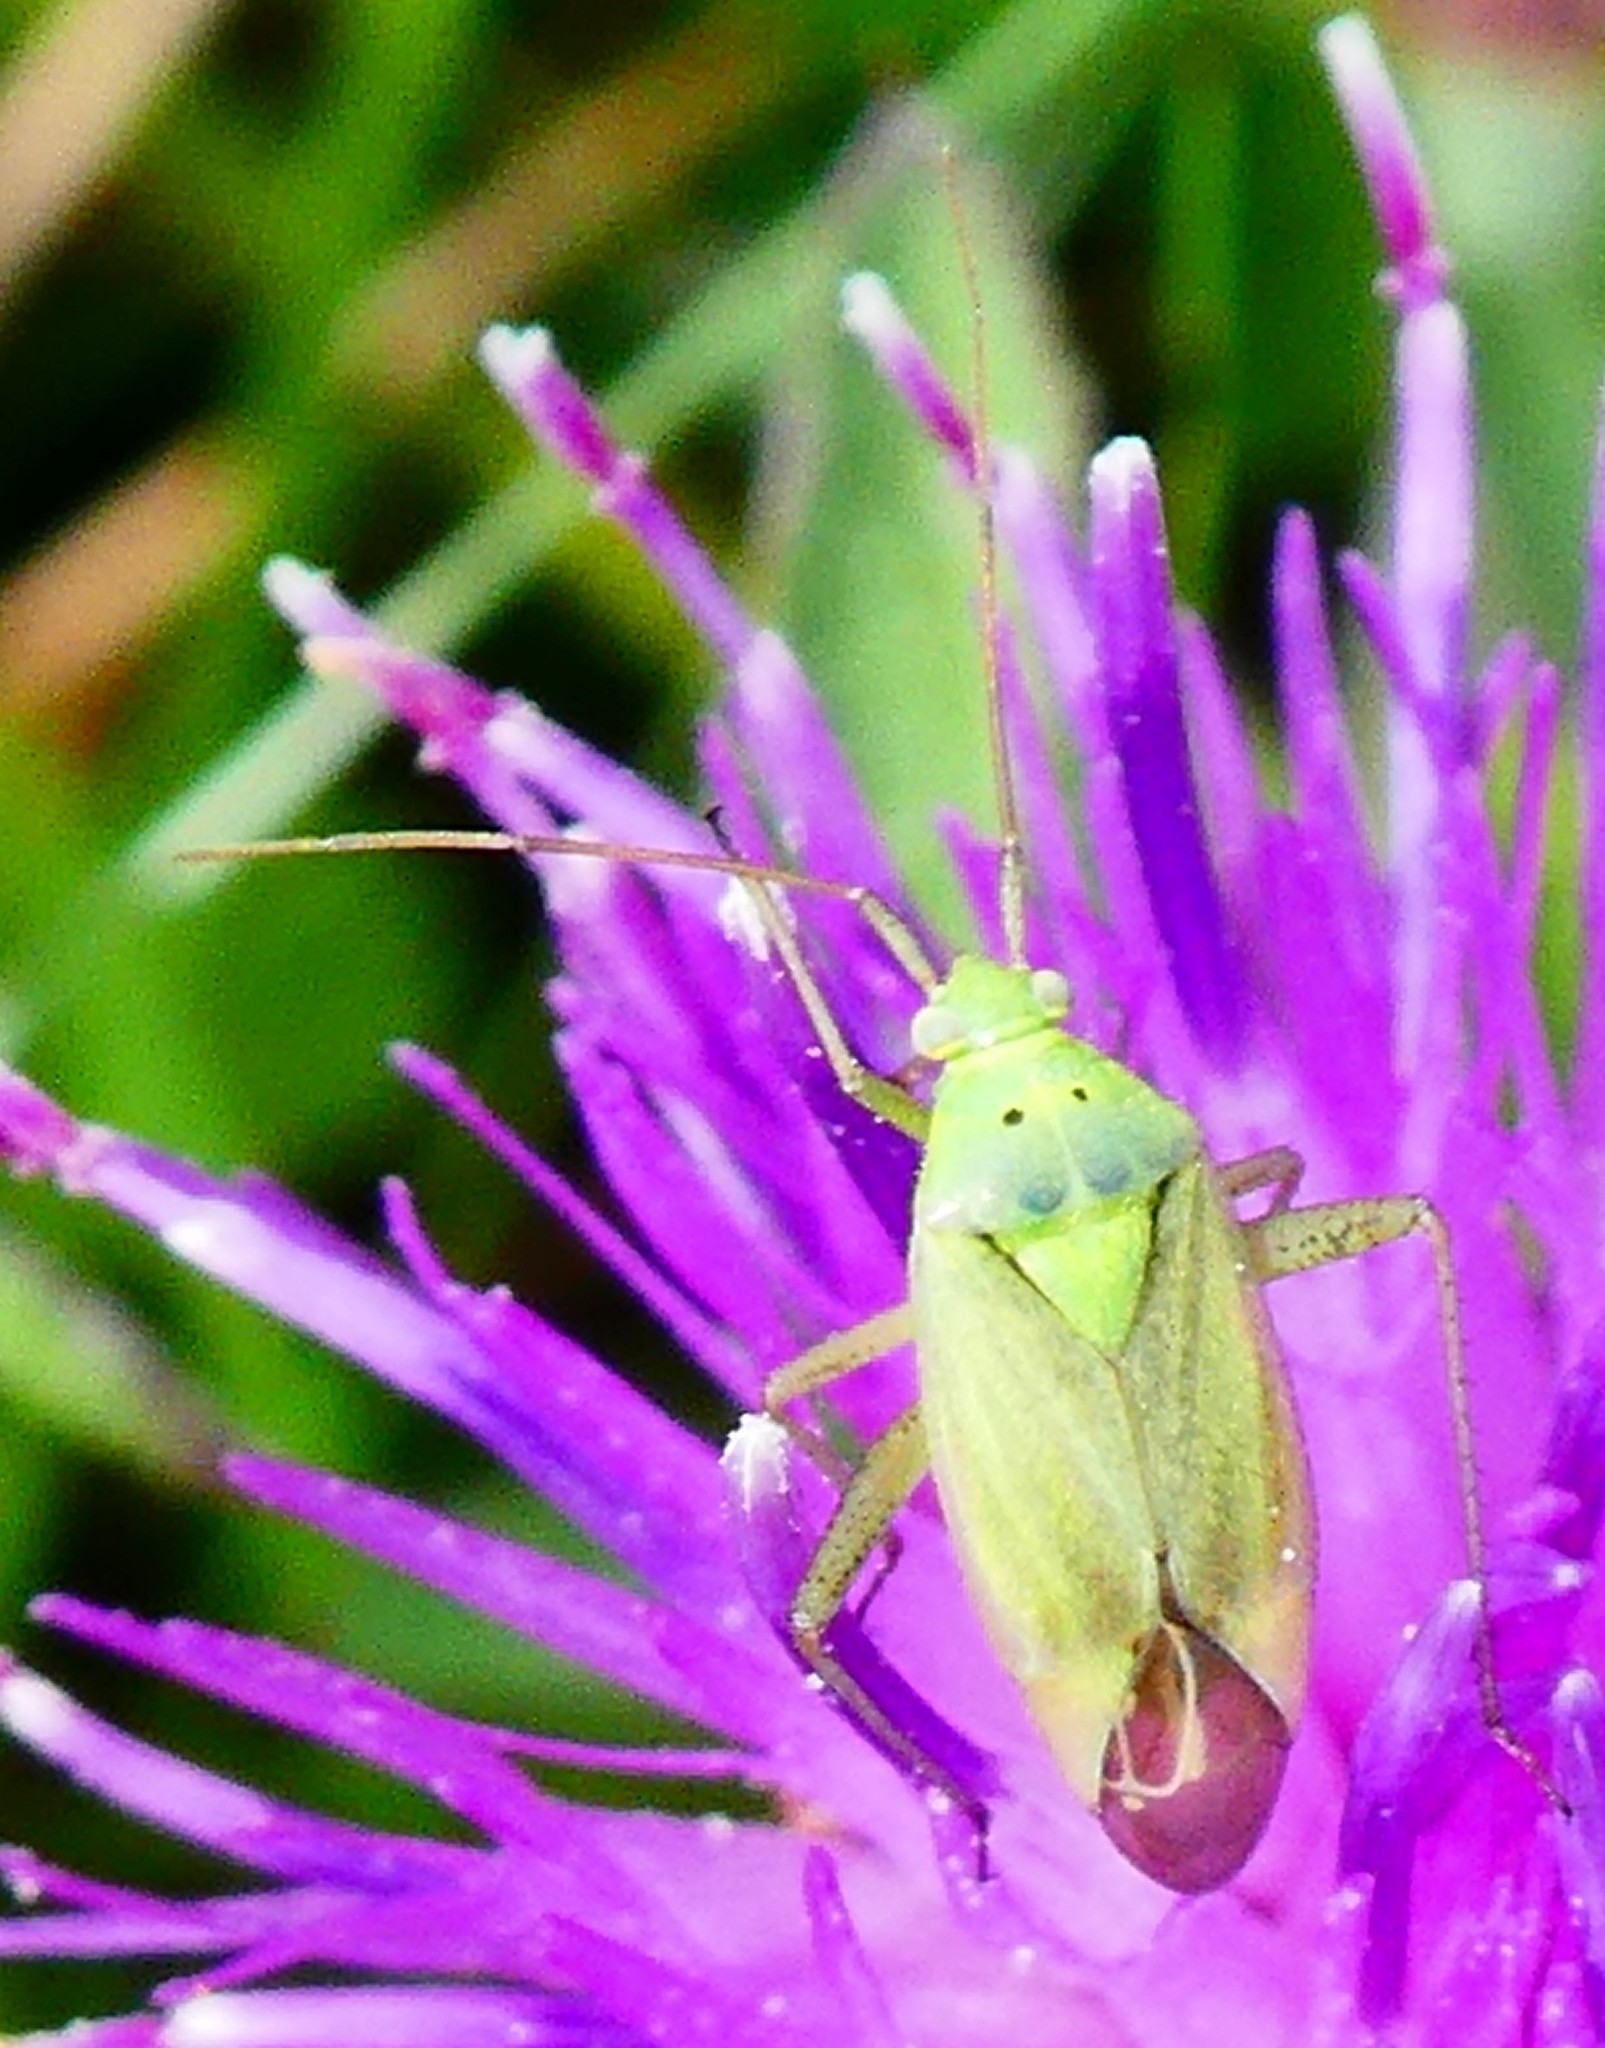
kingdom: Animalia
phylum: Arthropoda
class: Insecta
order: Hemiptera
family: Miridae
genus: Closterotomus
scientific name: Closterotomus norvegicus
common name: Plant bug
